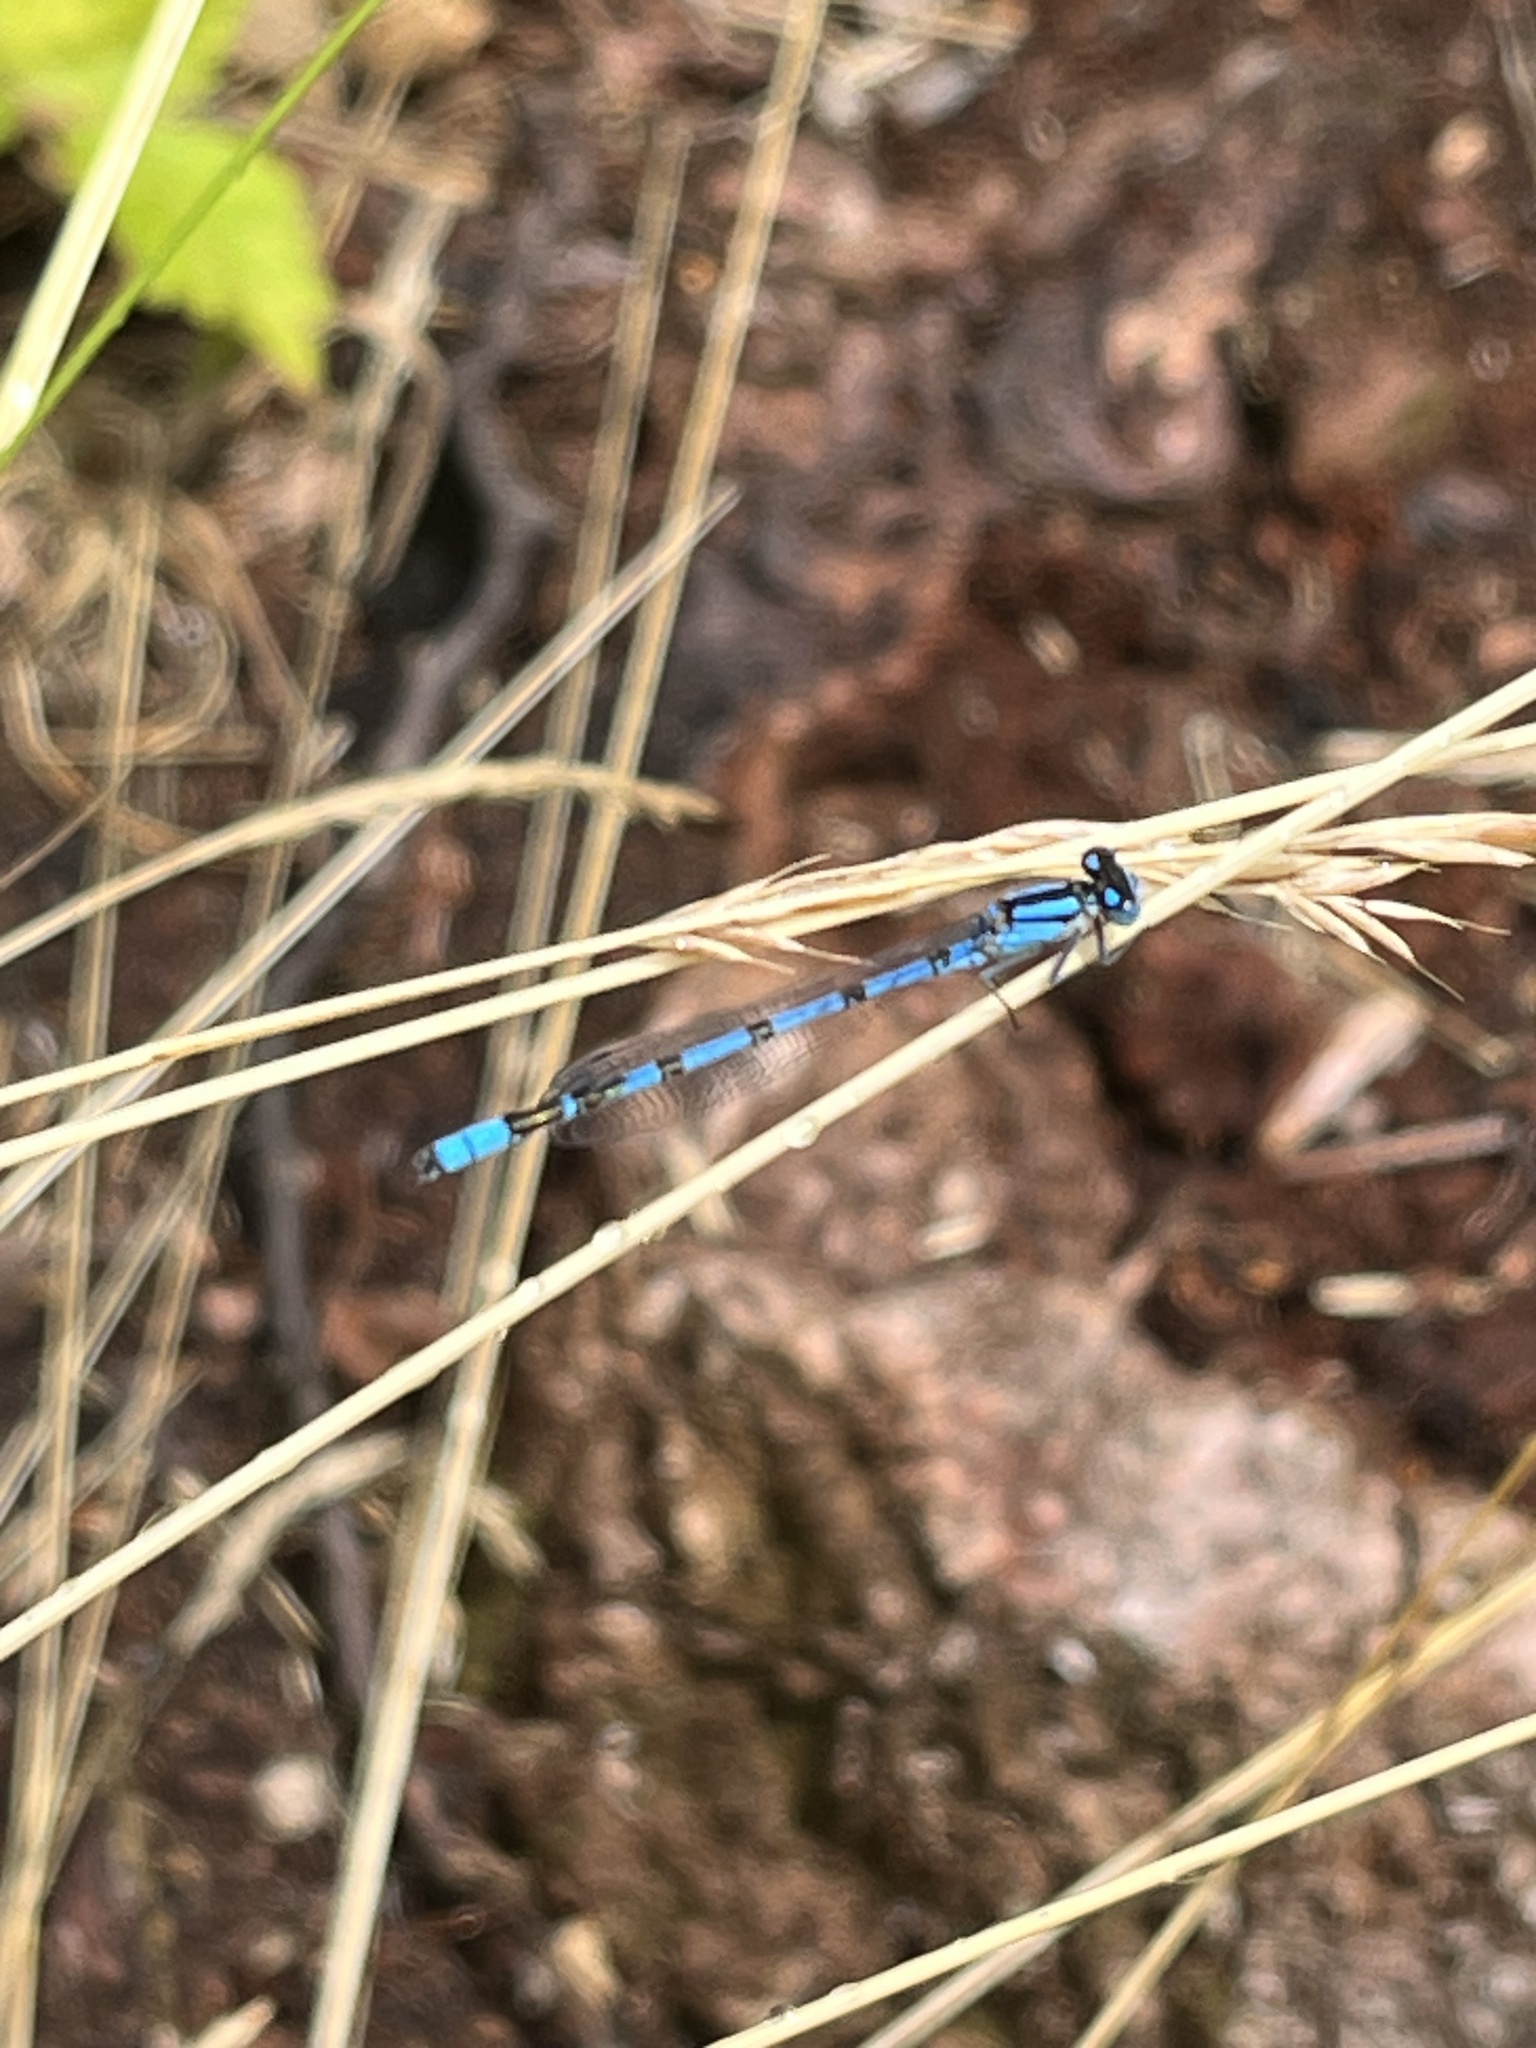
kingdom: Animalia
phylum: Arthropoda
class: Insecta
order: Odonata
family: Coenagrionidae
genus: Enallagma
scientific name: Enallagma cyathigerum
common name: Common blue damselfly
